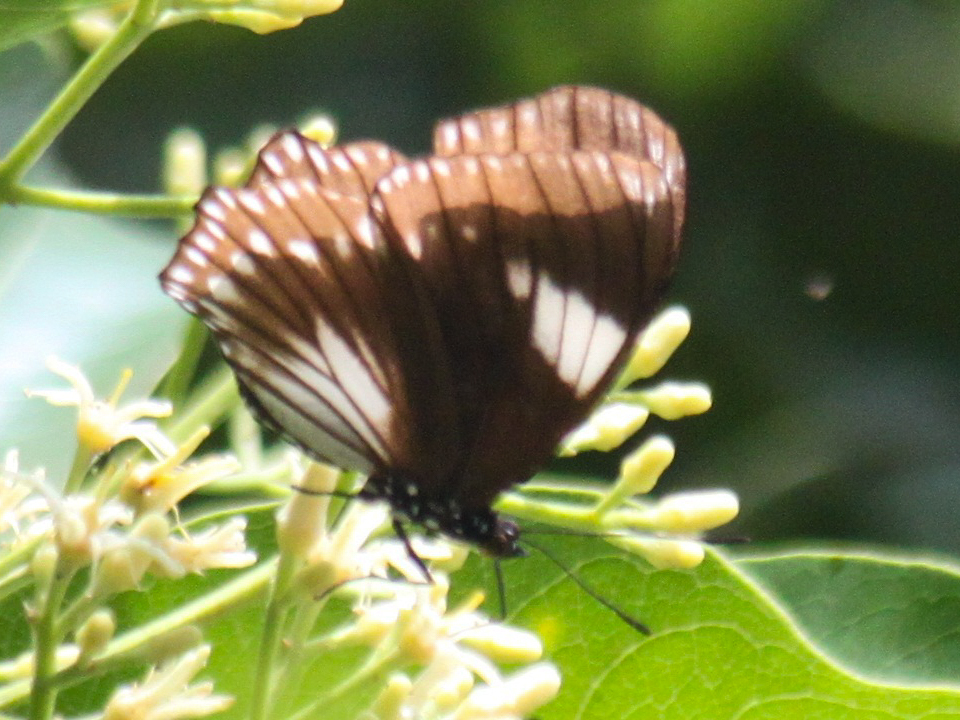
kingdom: Animalia
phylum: Arthropoda
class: Insecta
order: Lepidoptera
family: Nymphalidae
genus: Euripus
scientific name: Euripus nyctelius
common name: Courtesan
